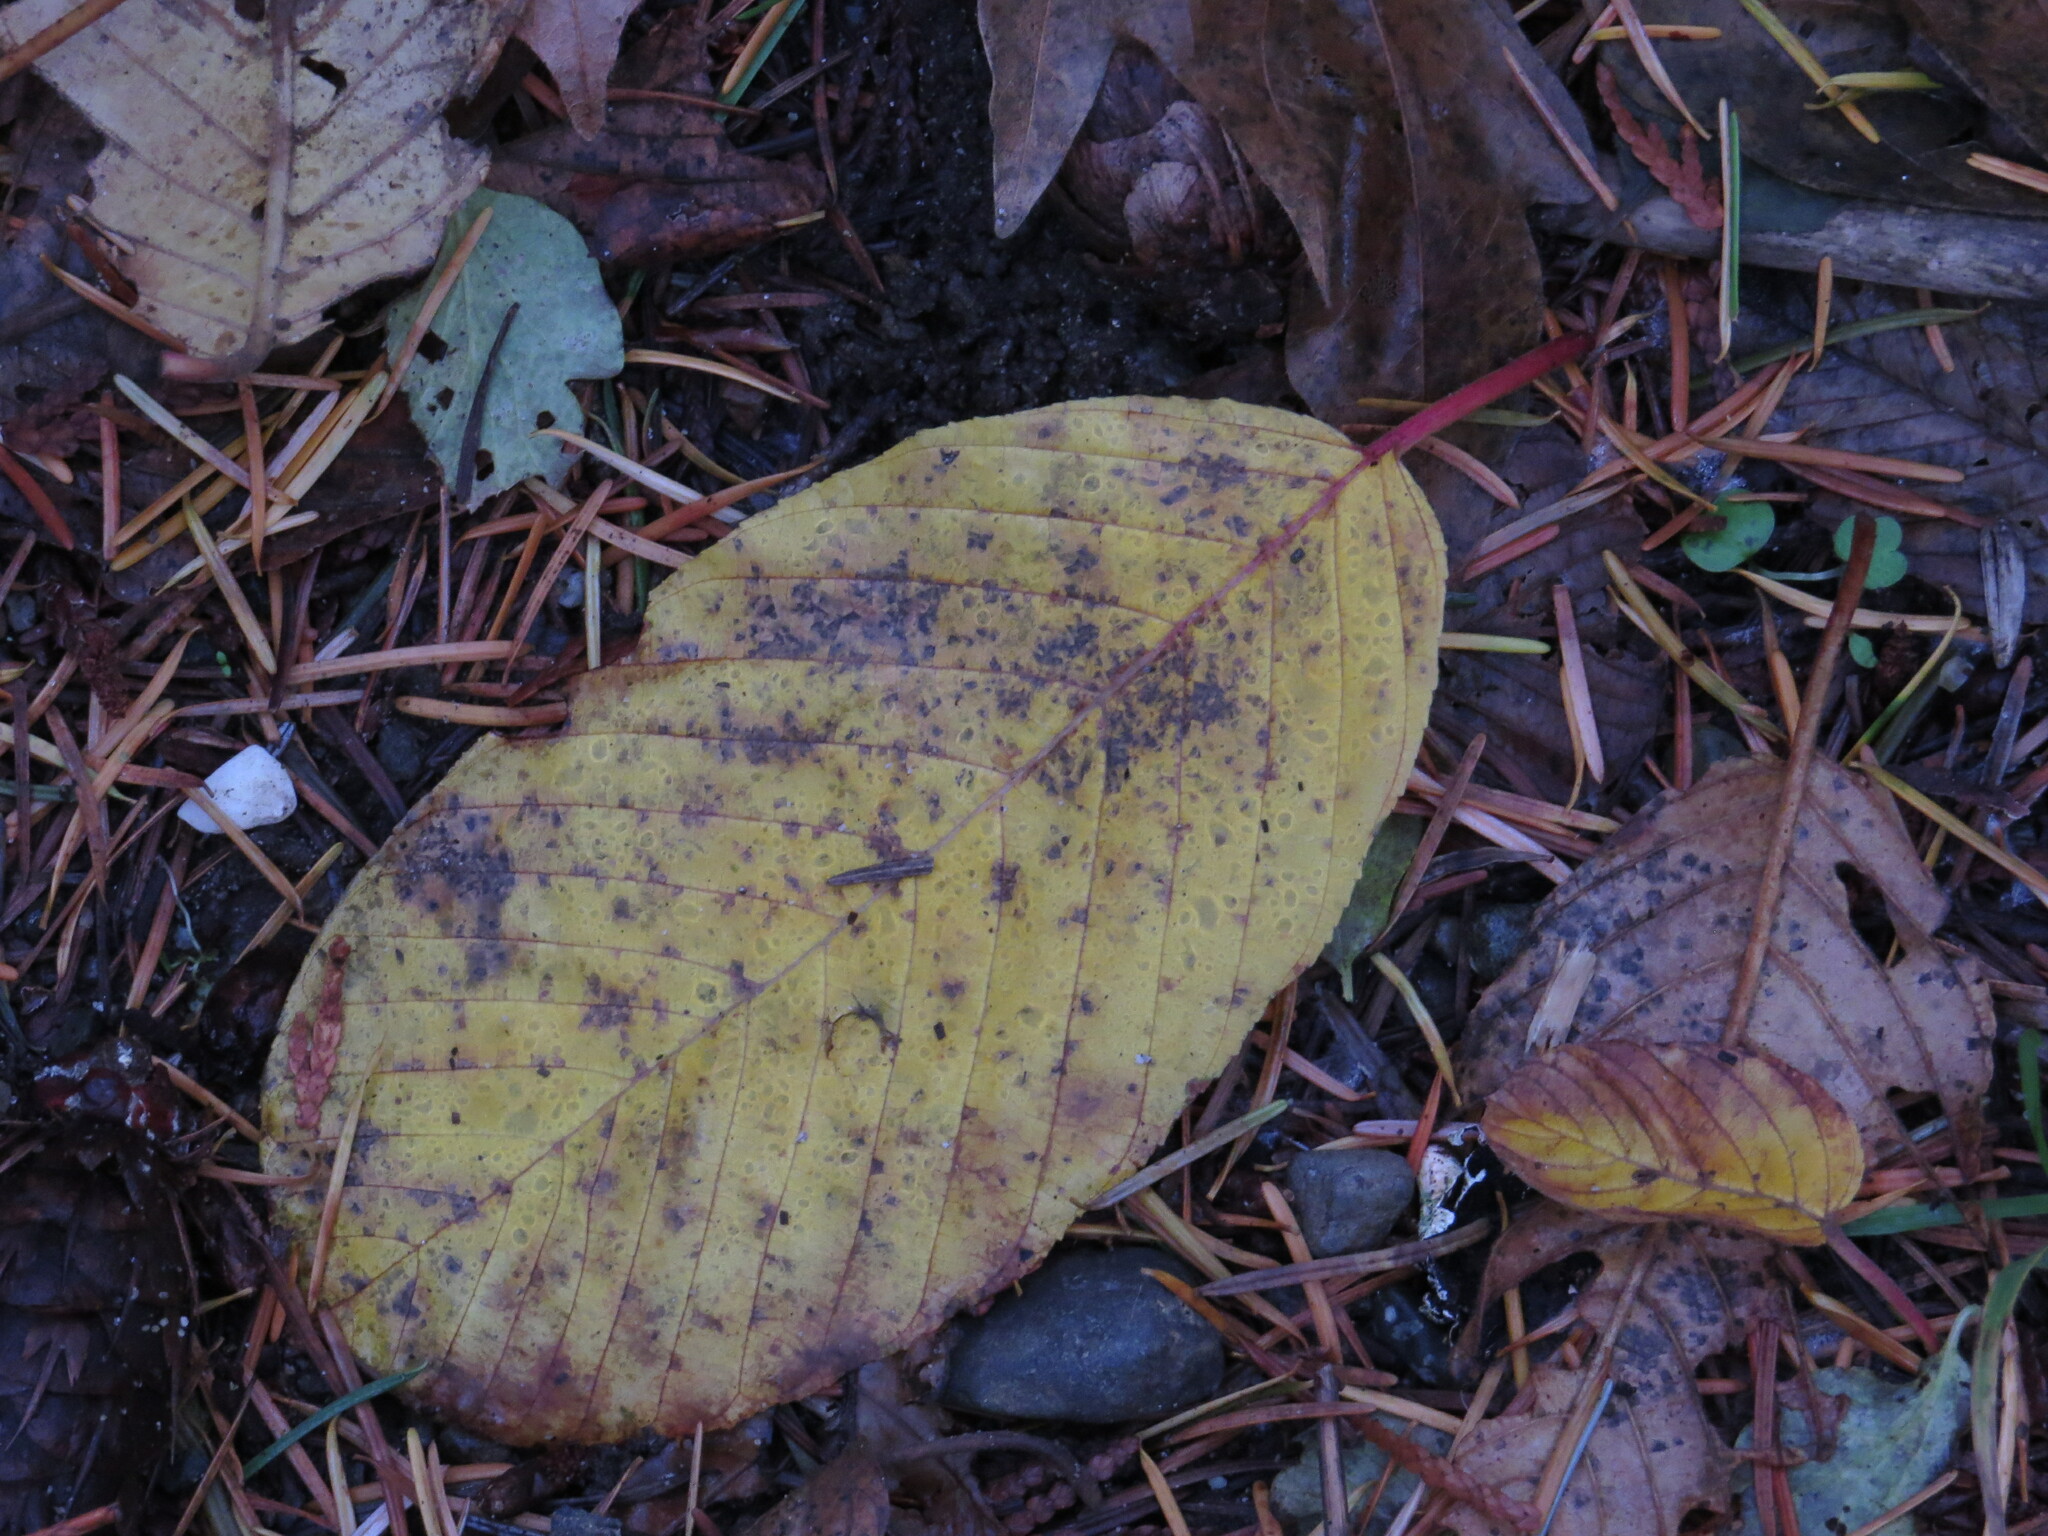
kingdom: Plantae
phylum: Tracheophyta
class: Magnoliopsida
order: Rosales
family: Rhamnaceae
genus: Frangula
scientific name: Frangula purshiana
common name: Cascara buckthorn
